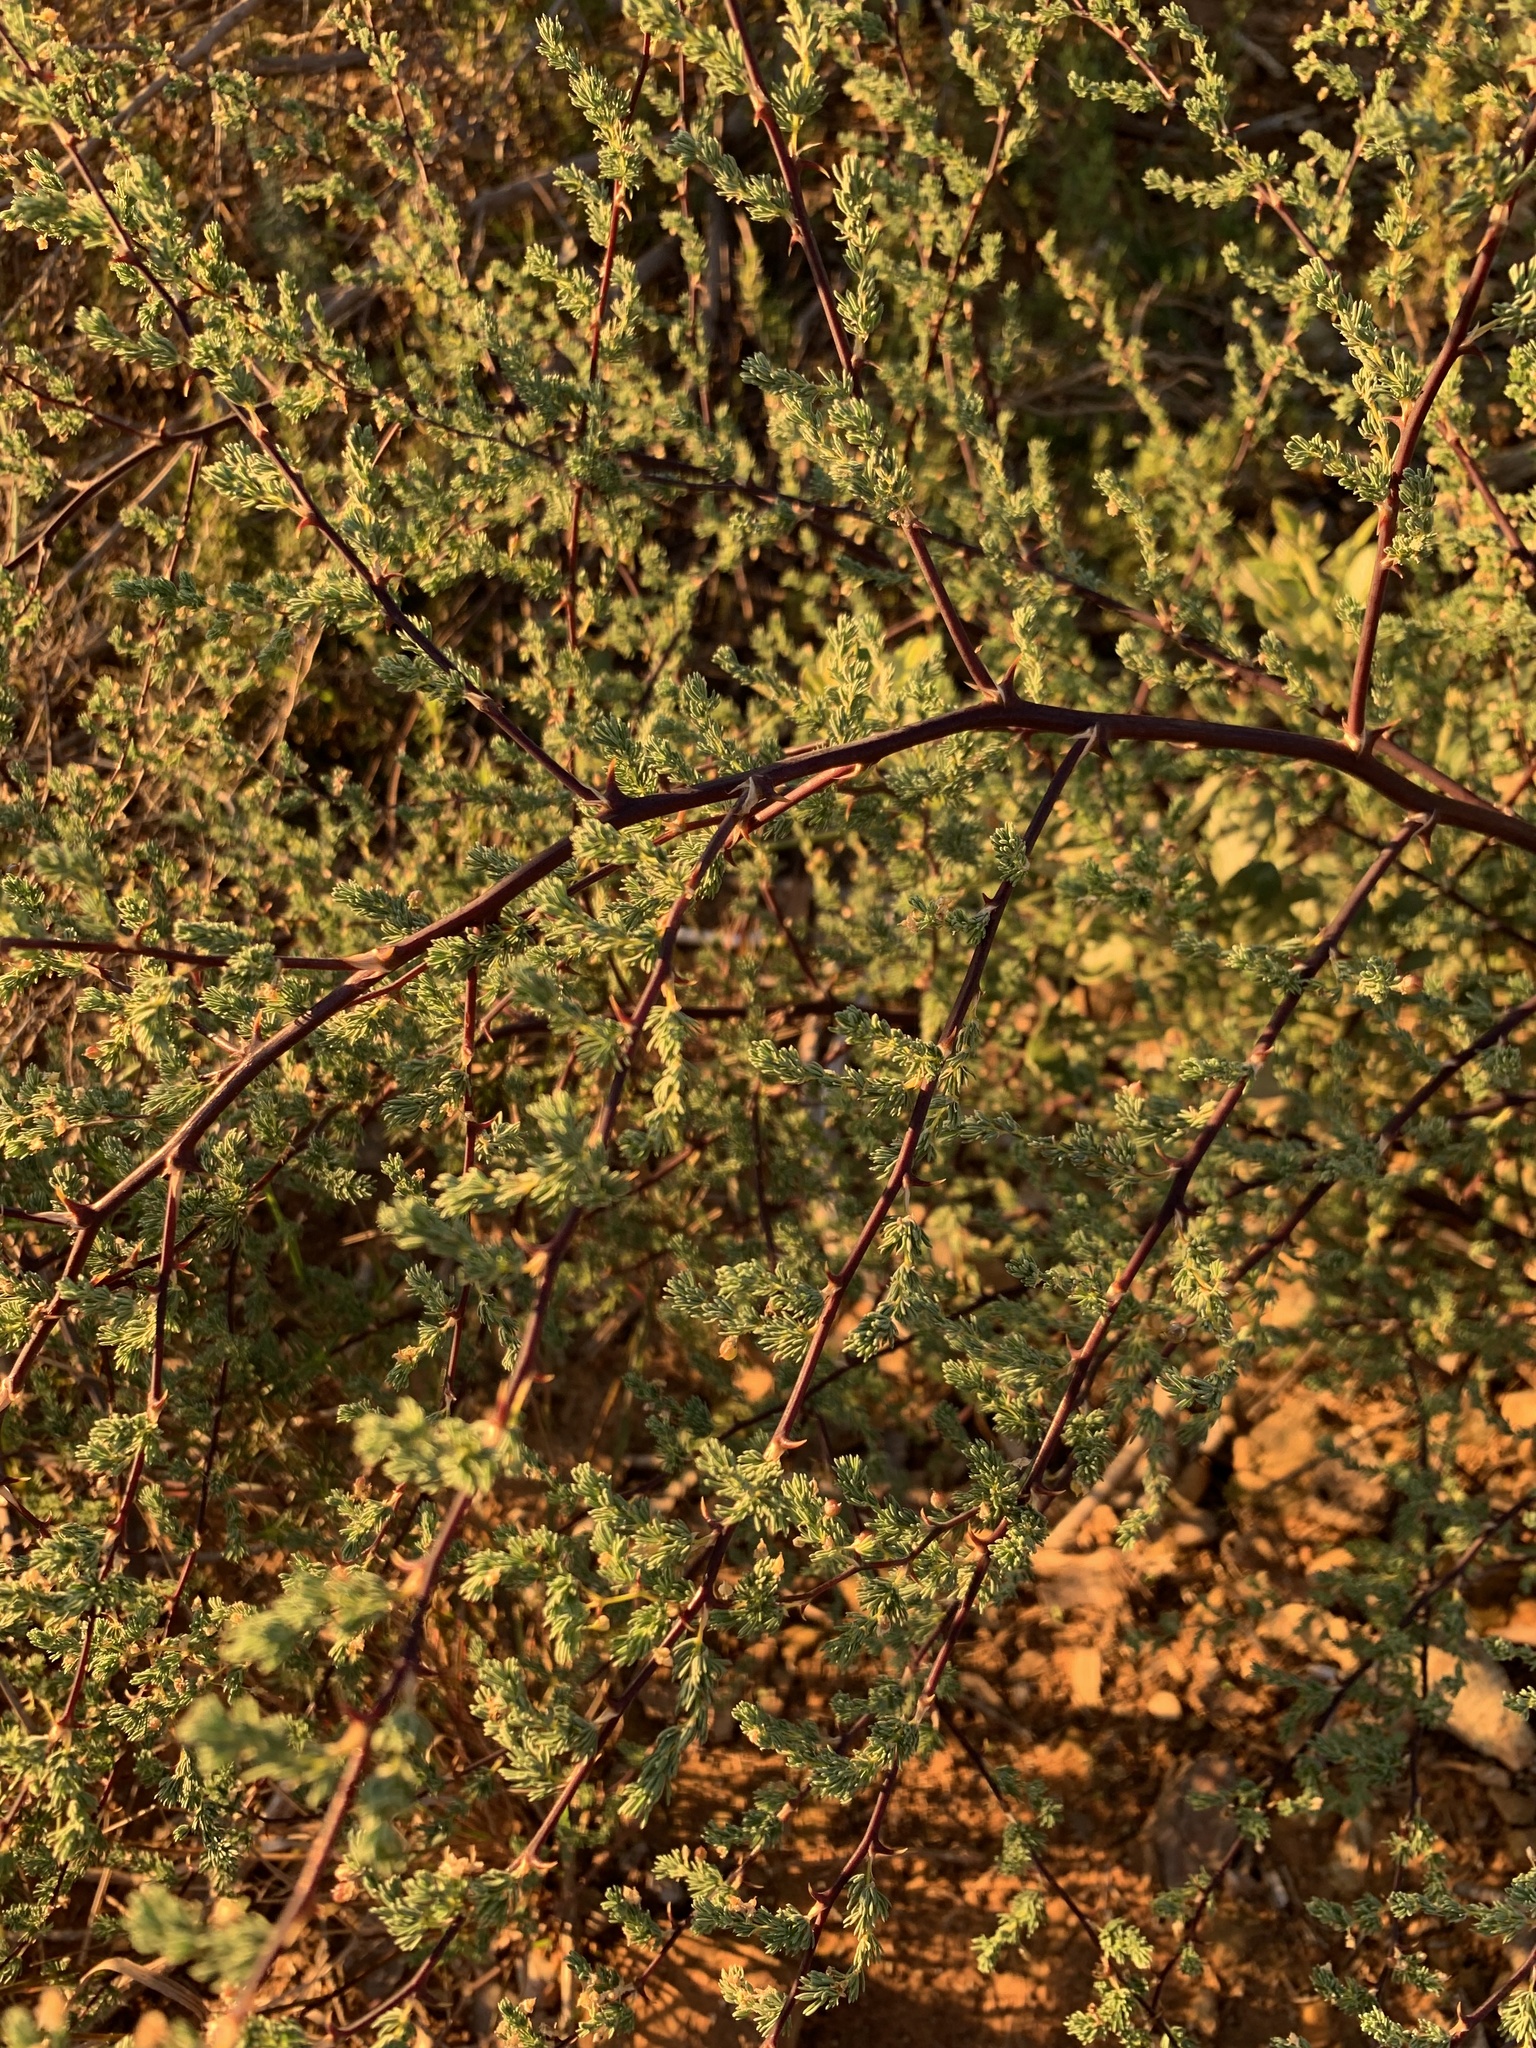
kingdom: Plantae
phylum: Tracheophyta
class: Liliopsida
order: Asparagales
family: Asparagaceae
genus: Asparagus
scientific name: Asparagus rubicundus
